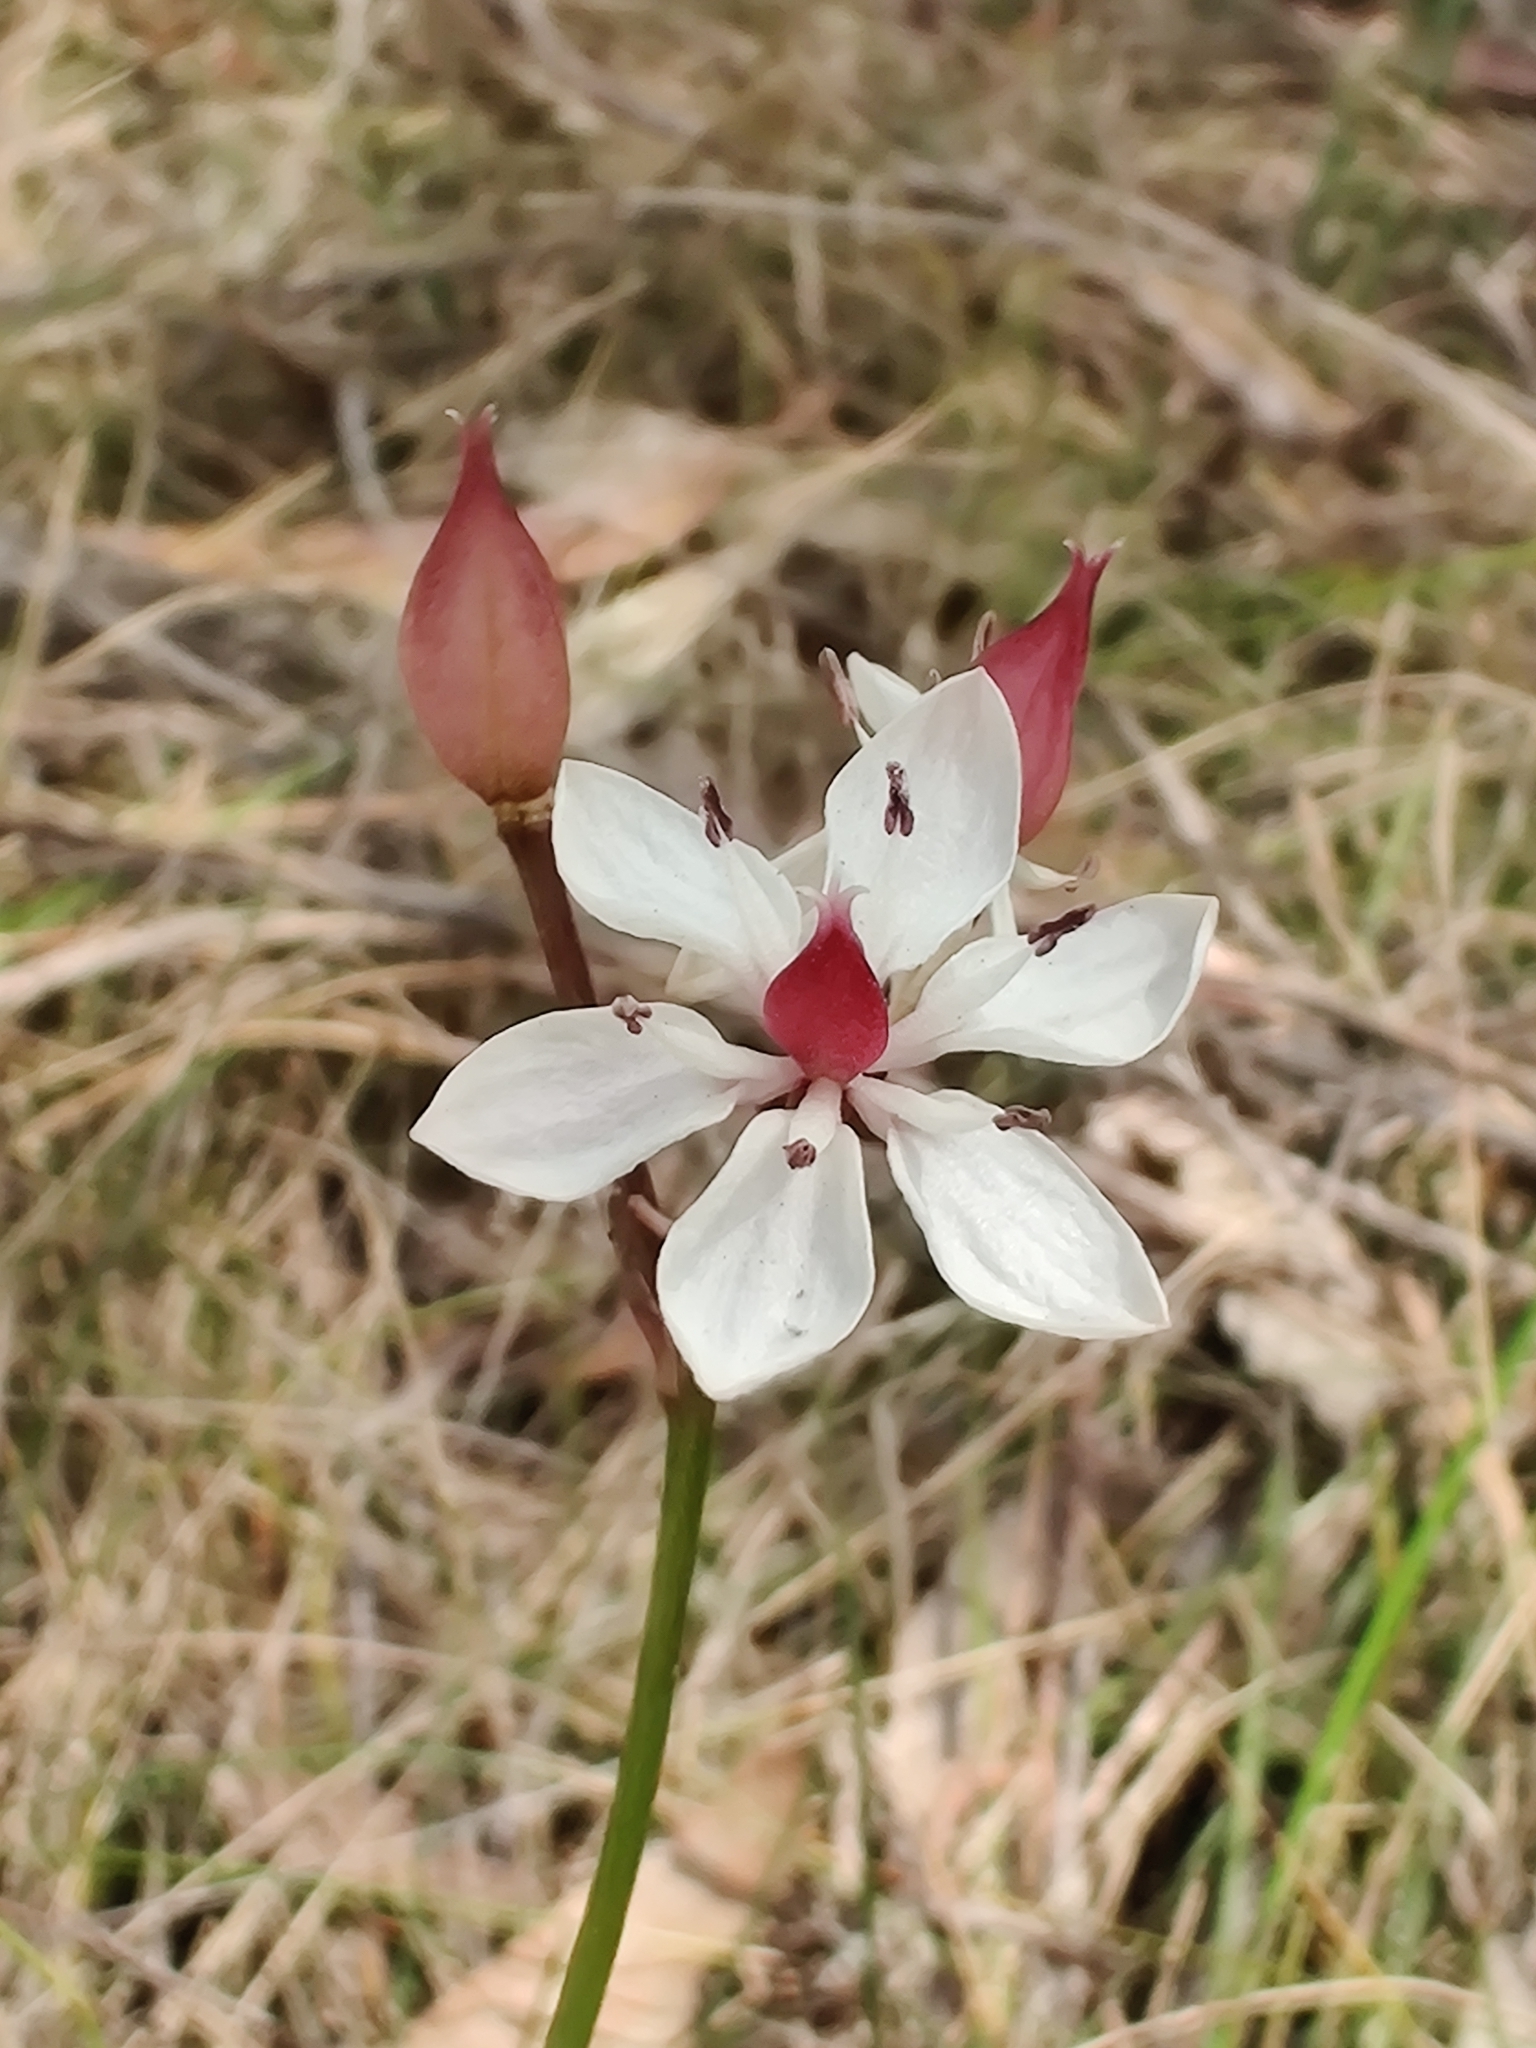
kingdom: Plantae
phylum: Tracheophyta
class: Liliopsida
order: Liliales
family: Colchicaceae
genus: Burchardia
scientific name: Burchardia umbellata
